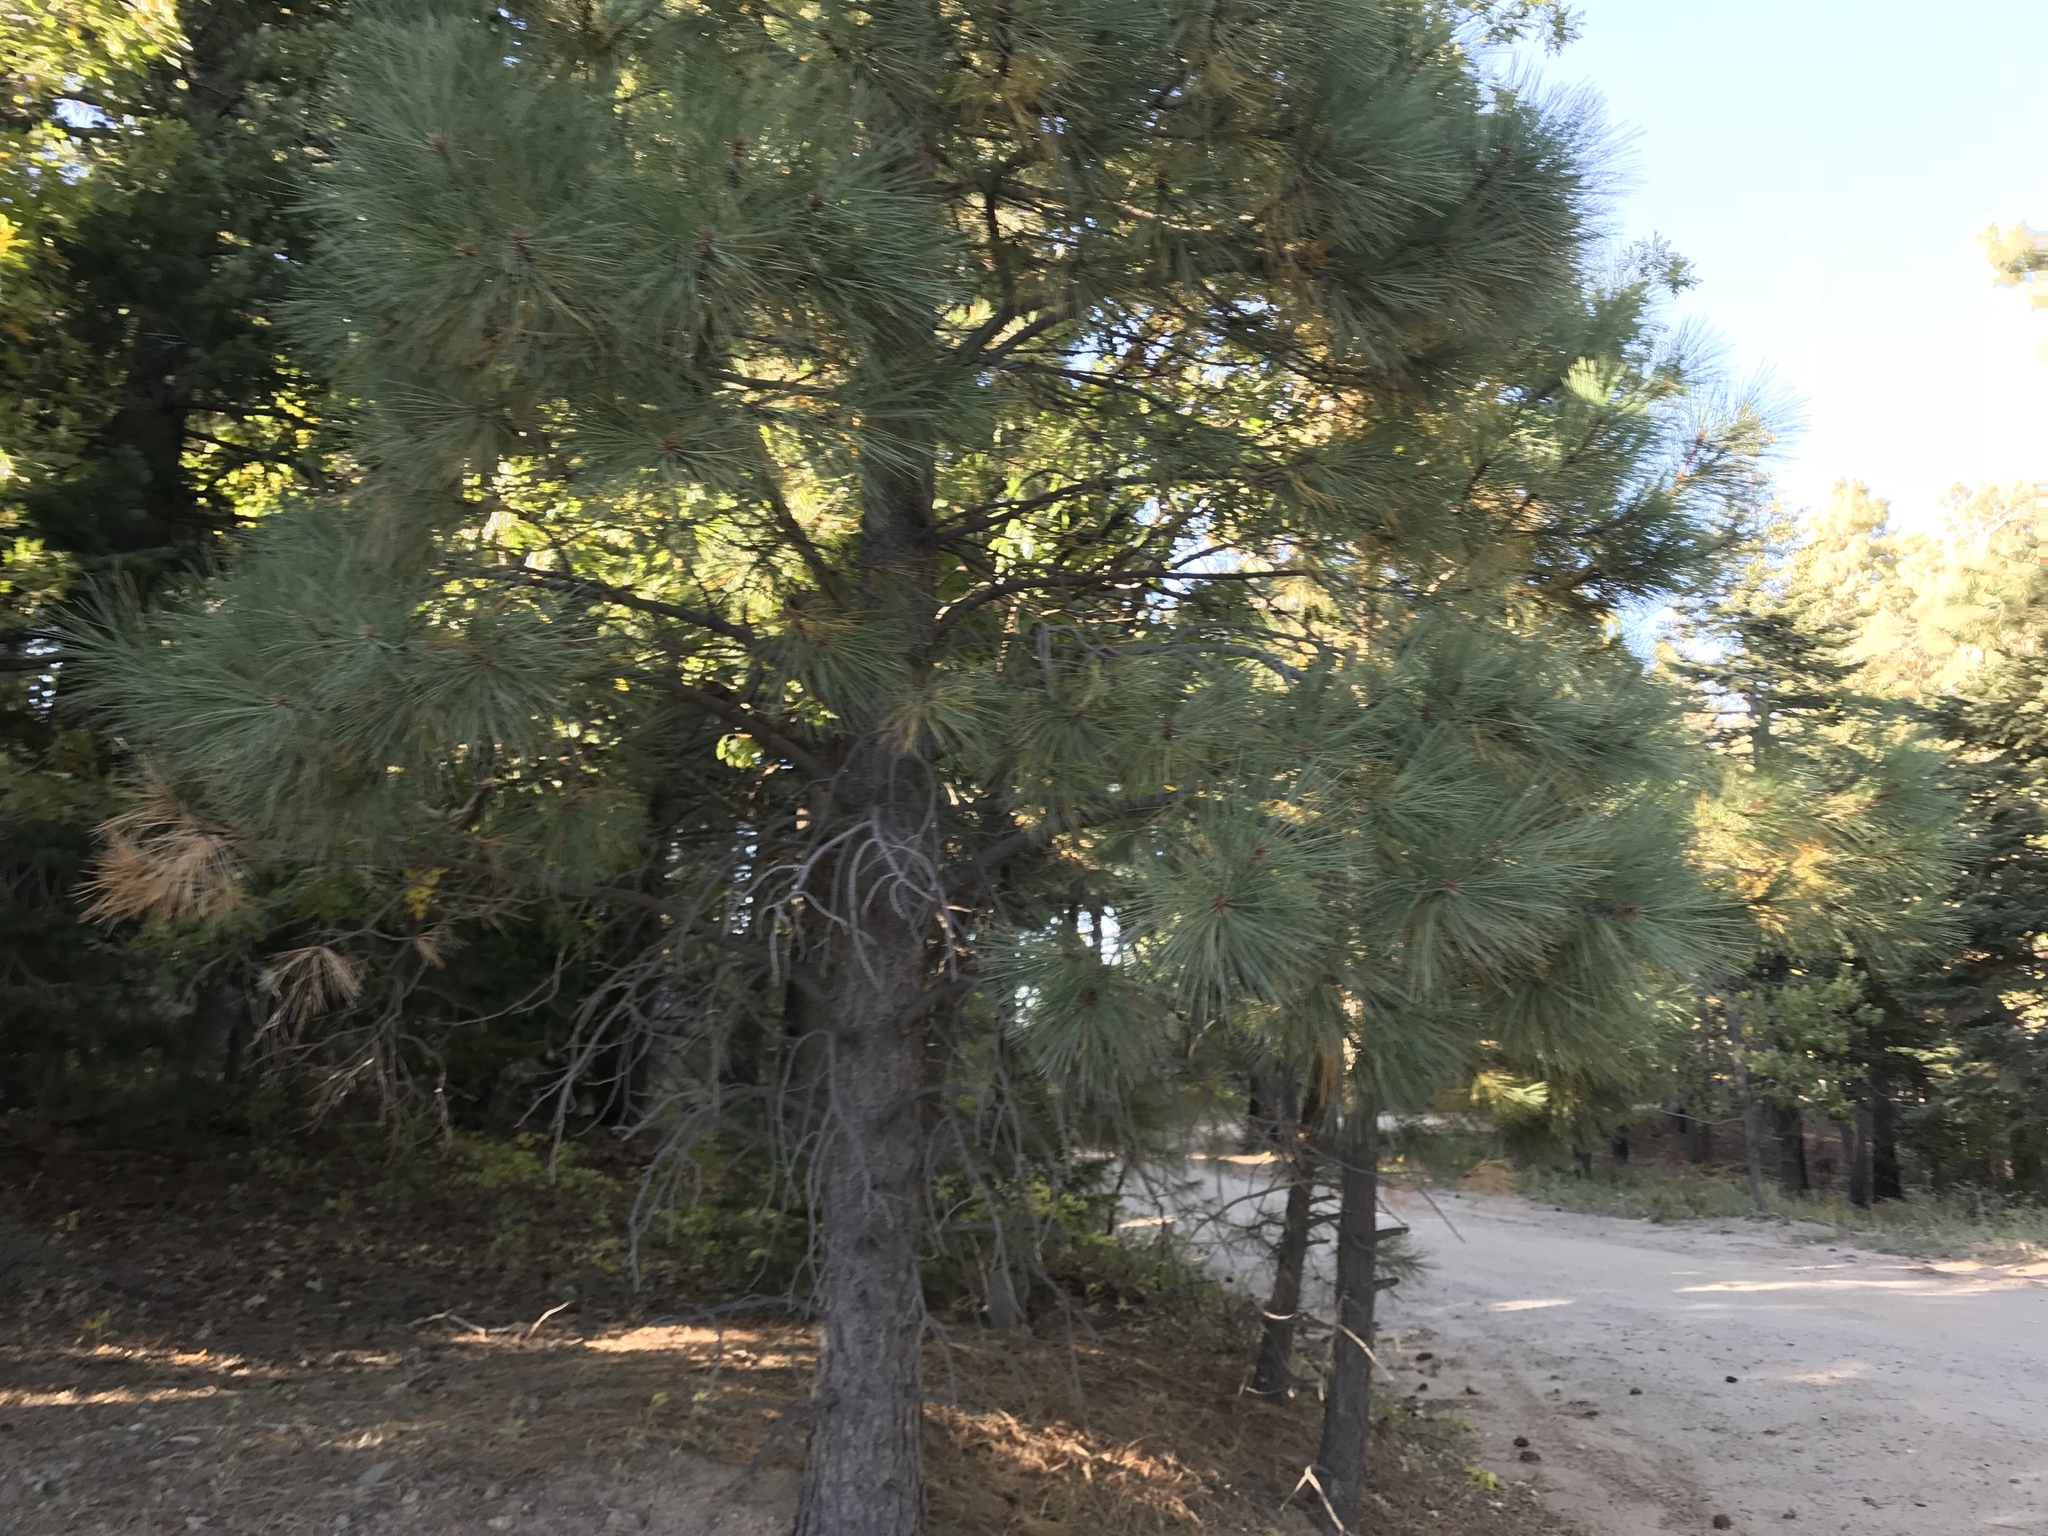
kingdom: Plantae
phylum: Tracheophyta
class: Pinopsida
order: Pinales
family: Pinaceae
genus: Pinus
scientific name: Pinus ponderosa
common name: Western yellow-pine
